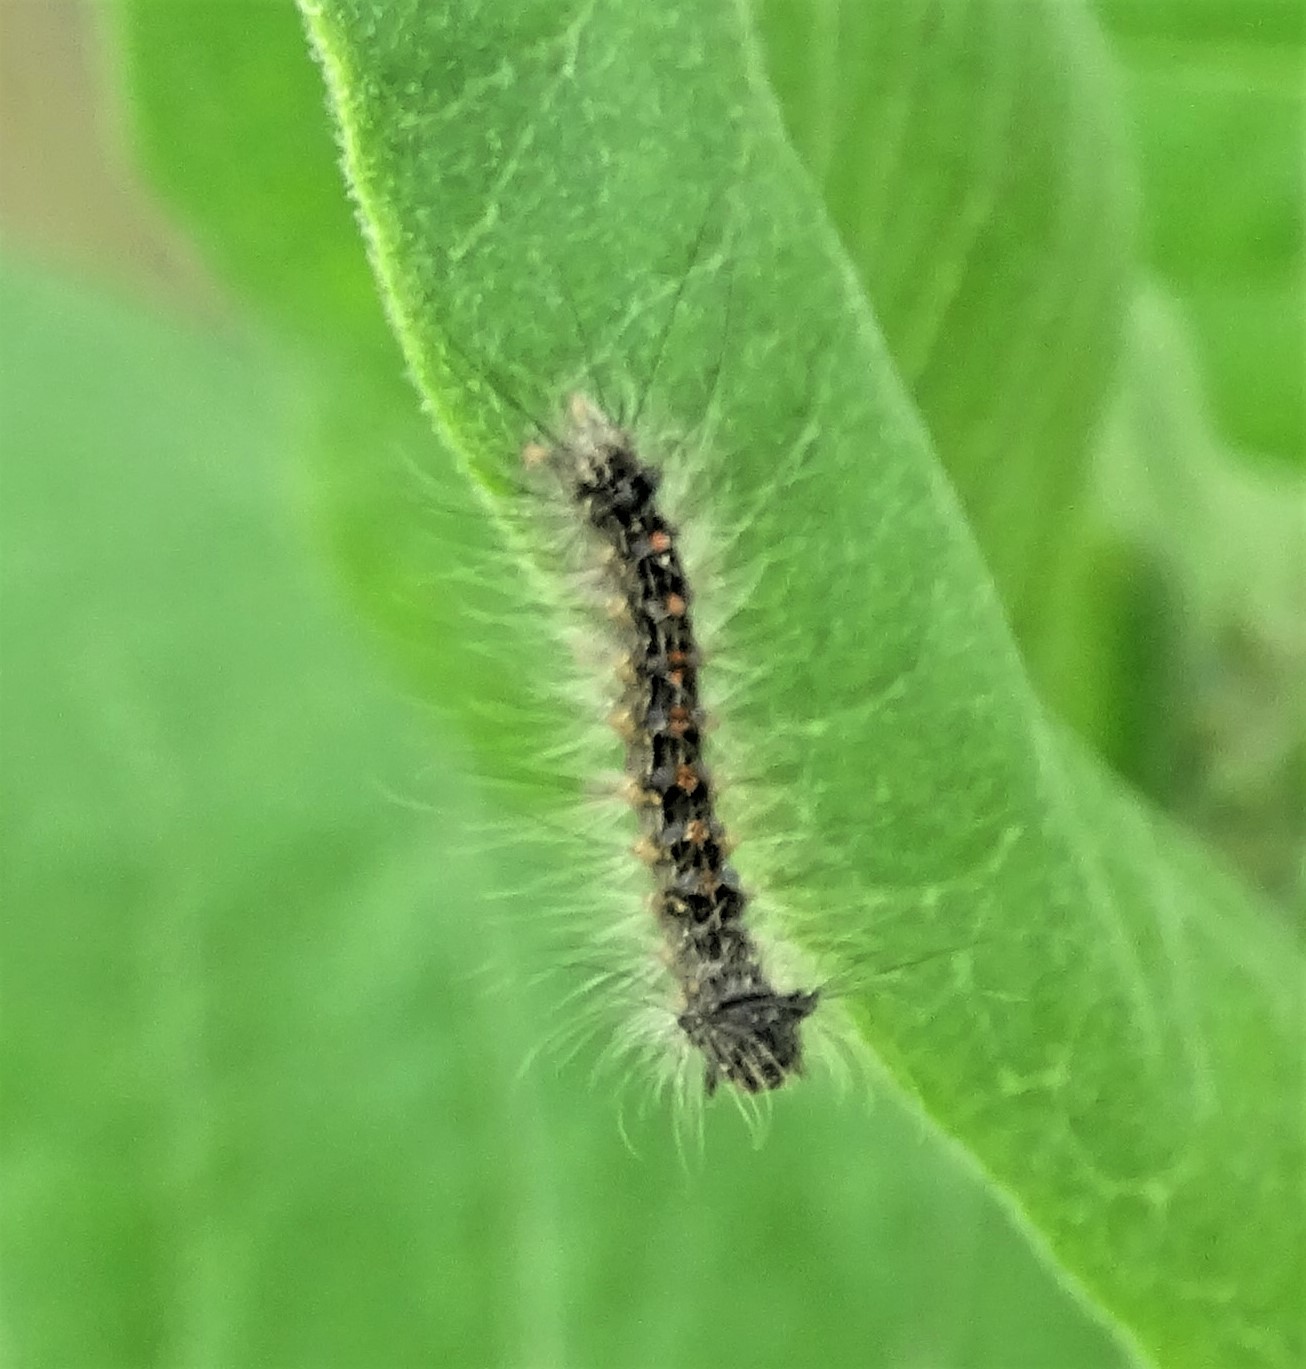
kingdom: Animalia
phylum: Arthropoda
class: Insecta
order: Lepidoptera
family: Erebidae
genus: Lymantria
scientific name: Lymantria dispar
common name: Gypsy moth
